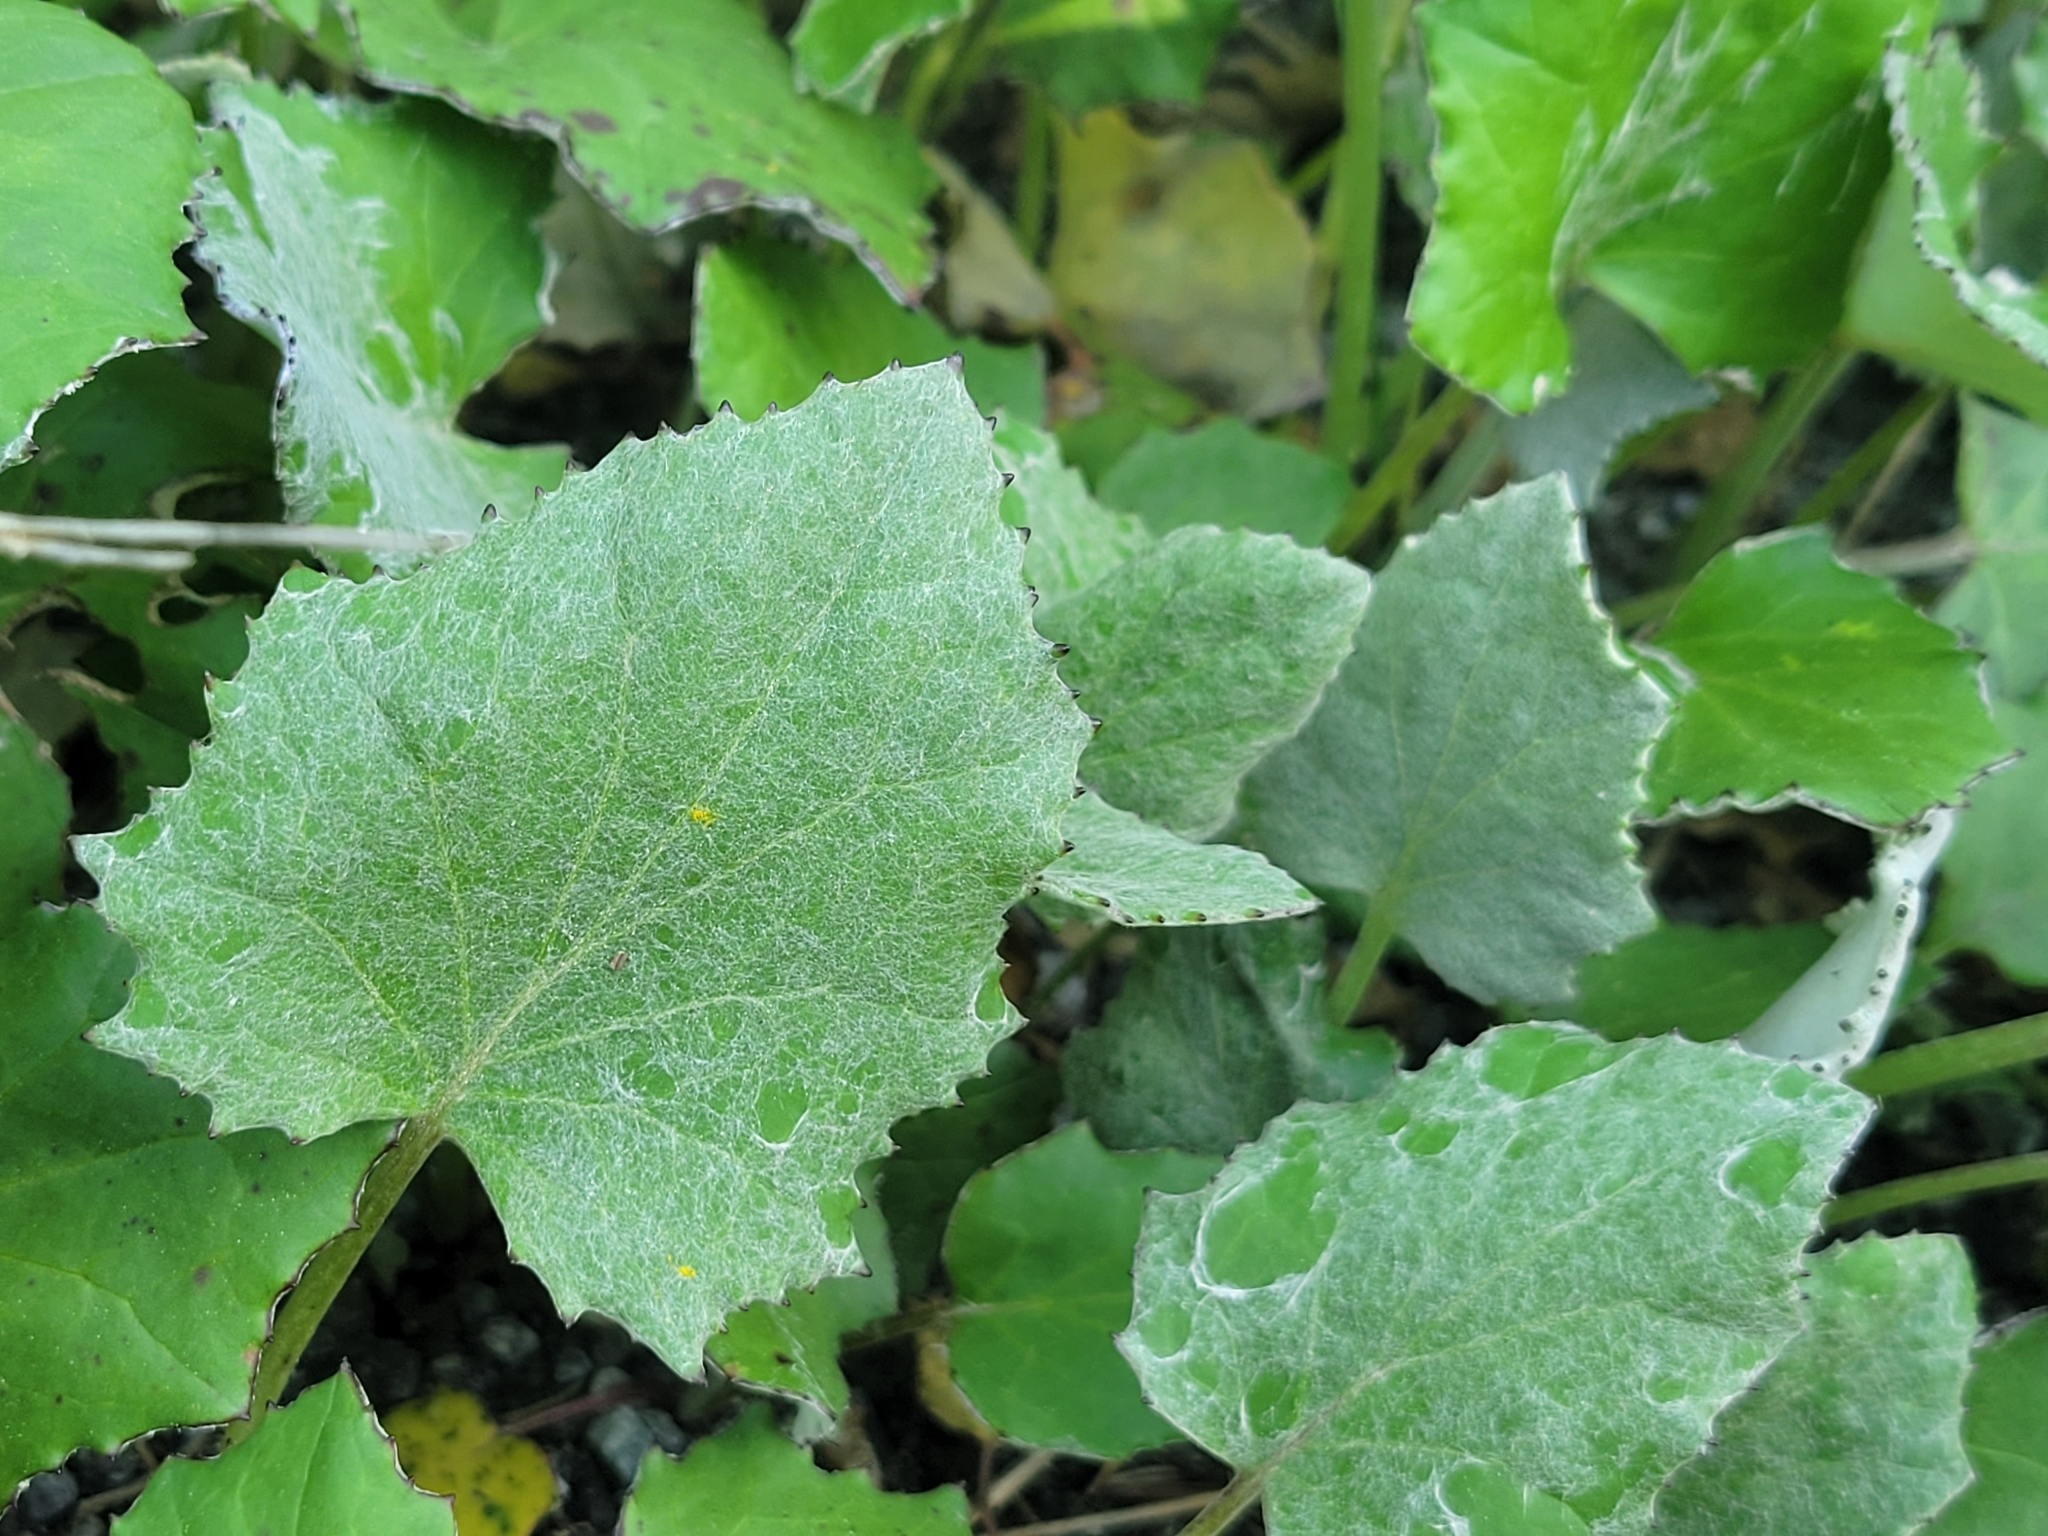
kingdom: Plantae
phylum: Tracheophyta
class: Magnoliopsida
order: Asterales
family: Asteraceae
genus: Tussilago
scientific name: Tussilago farfara
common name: Coltsfoot
